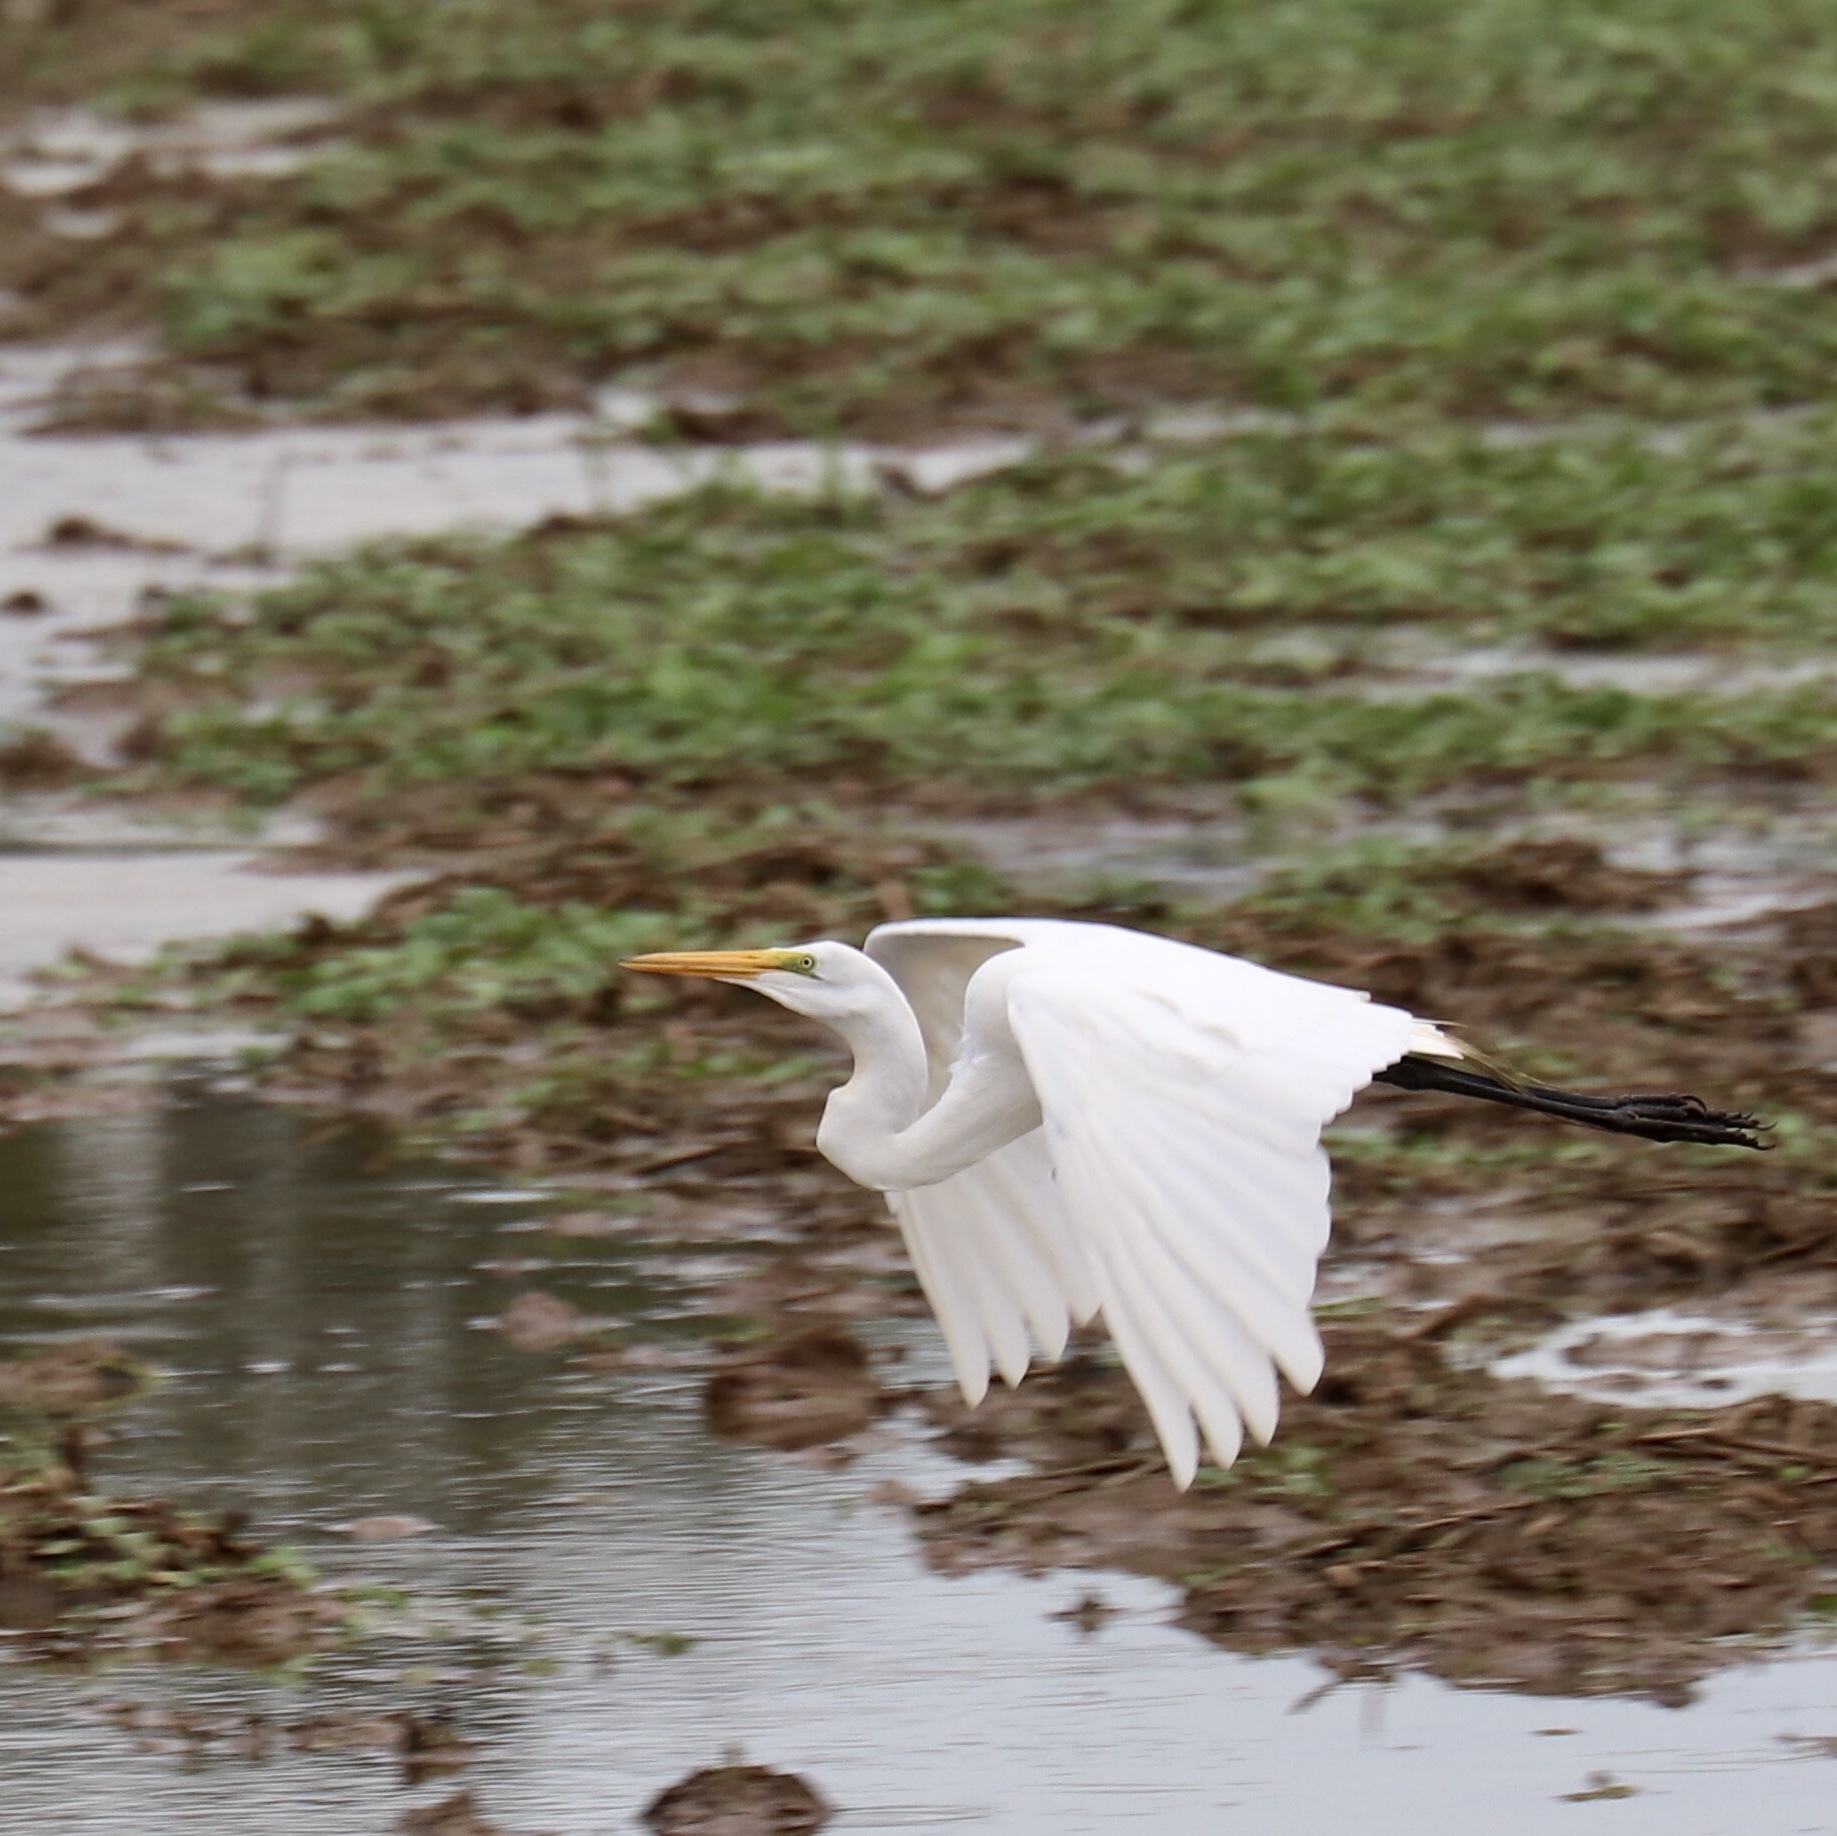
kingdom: Animalia
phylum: Chordata
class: Aves
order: Pelecaniformes
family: Ardeidae
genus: Ardea
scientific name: Ardea alba
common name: Great egret
